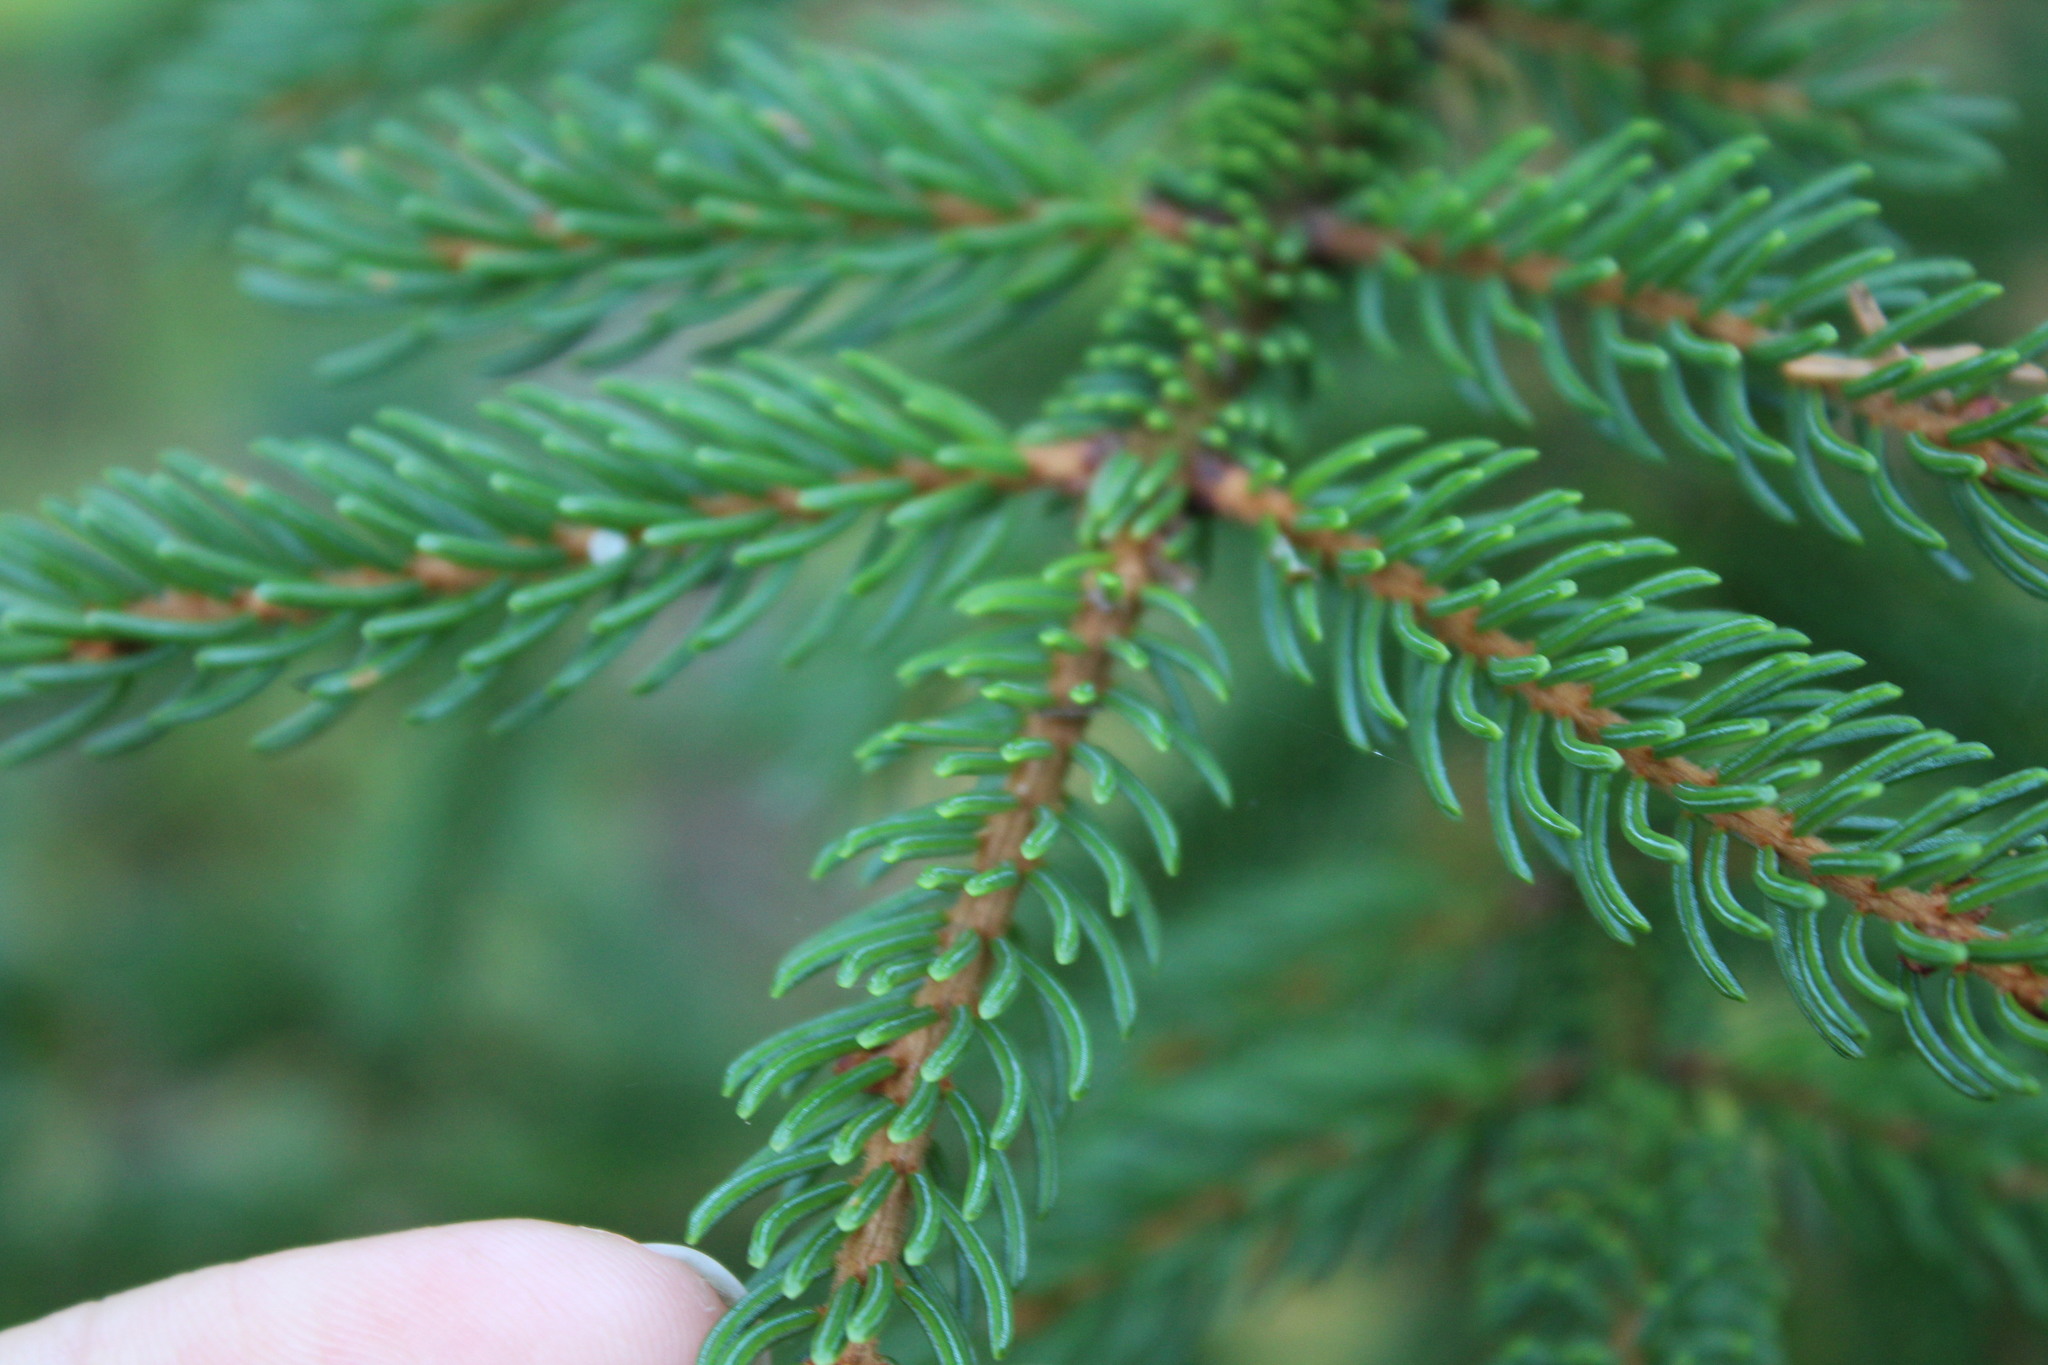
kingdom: Plantae
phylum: Tracheophyta
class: Pinopsida
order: Pinales
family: Pinaceae
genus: Picea
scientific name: Picea mariana
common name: Black spruce
